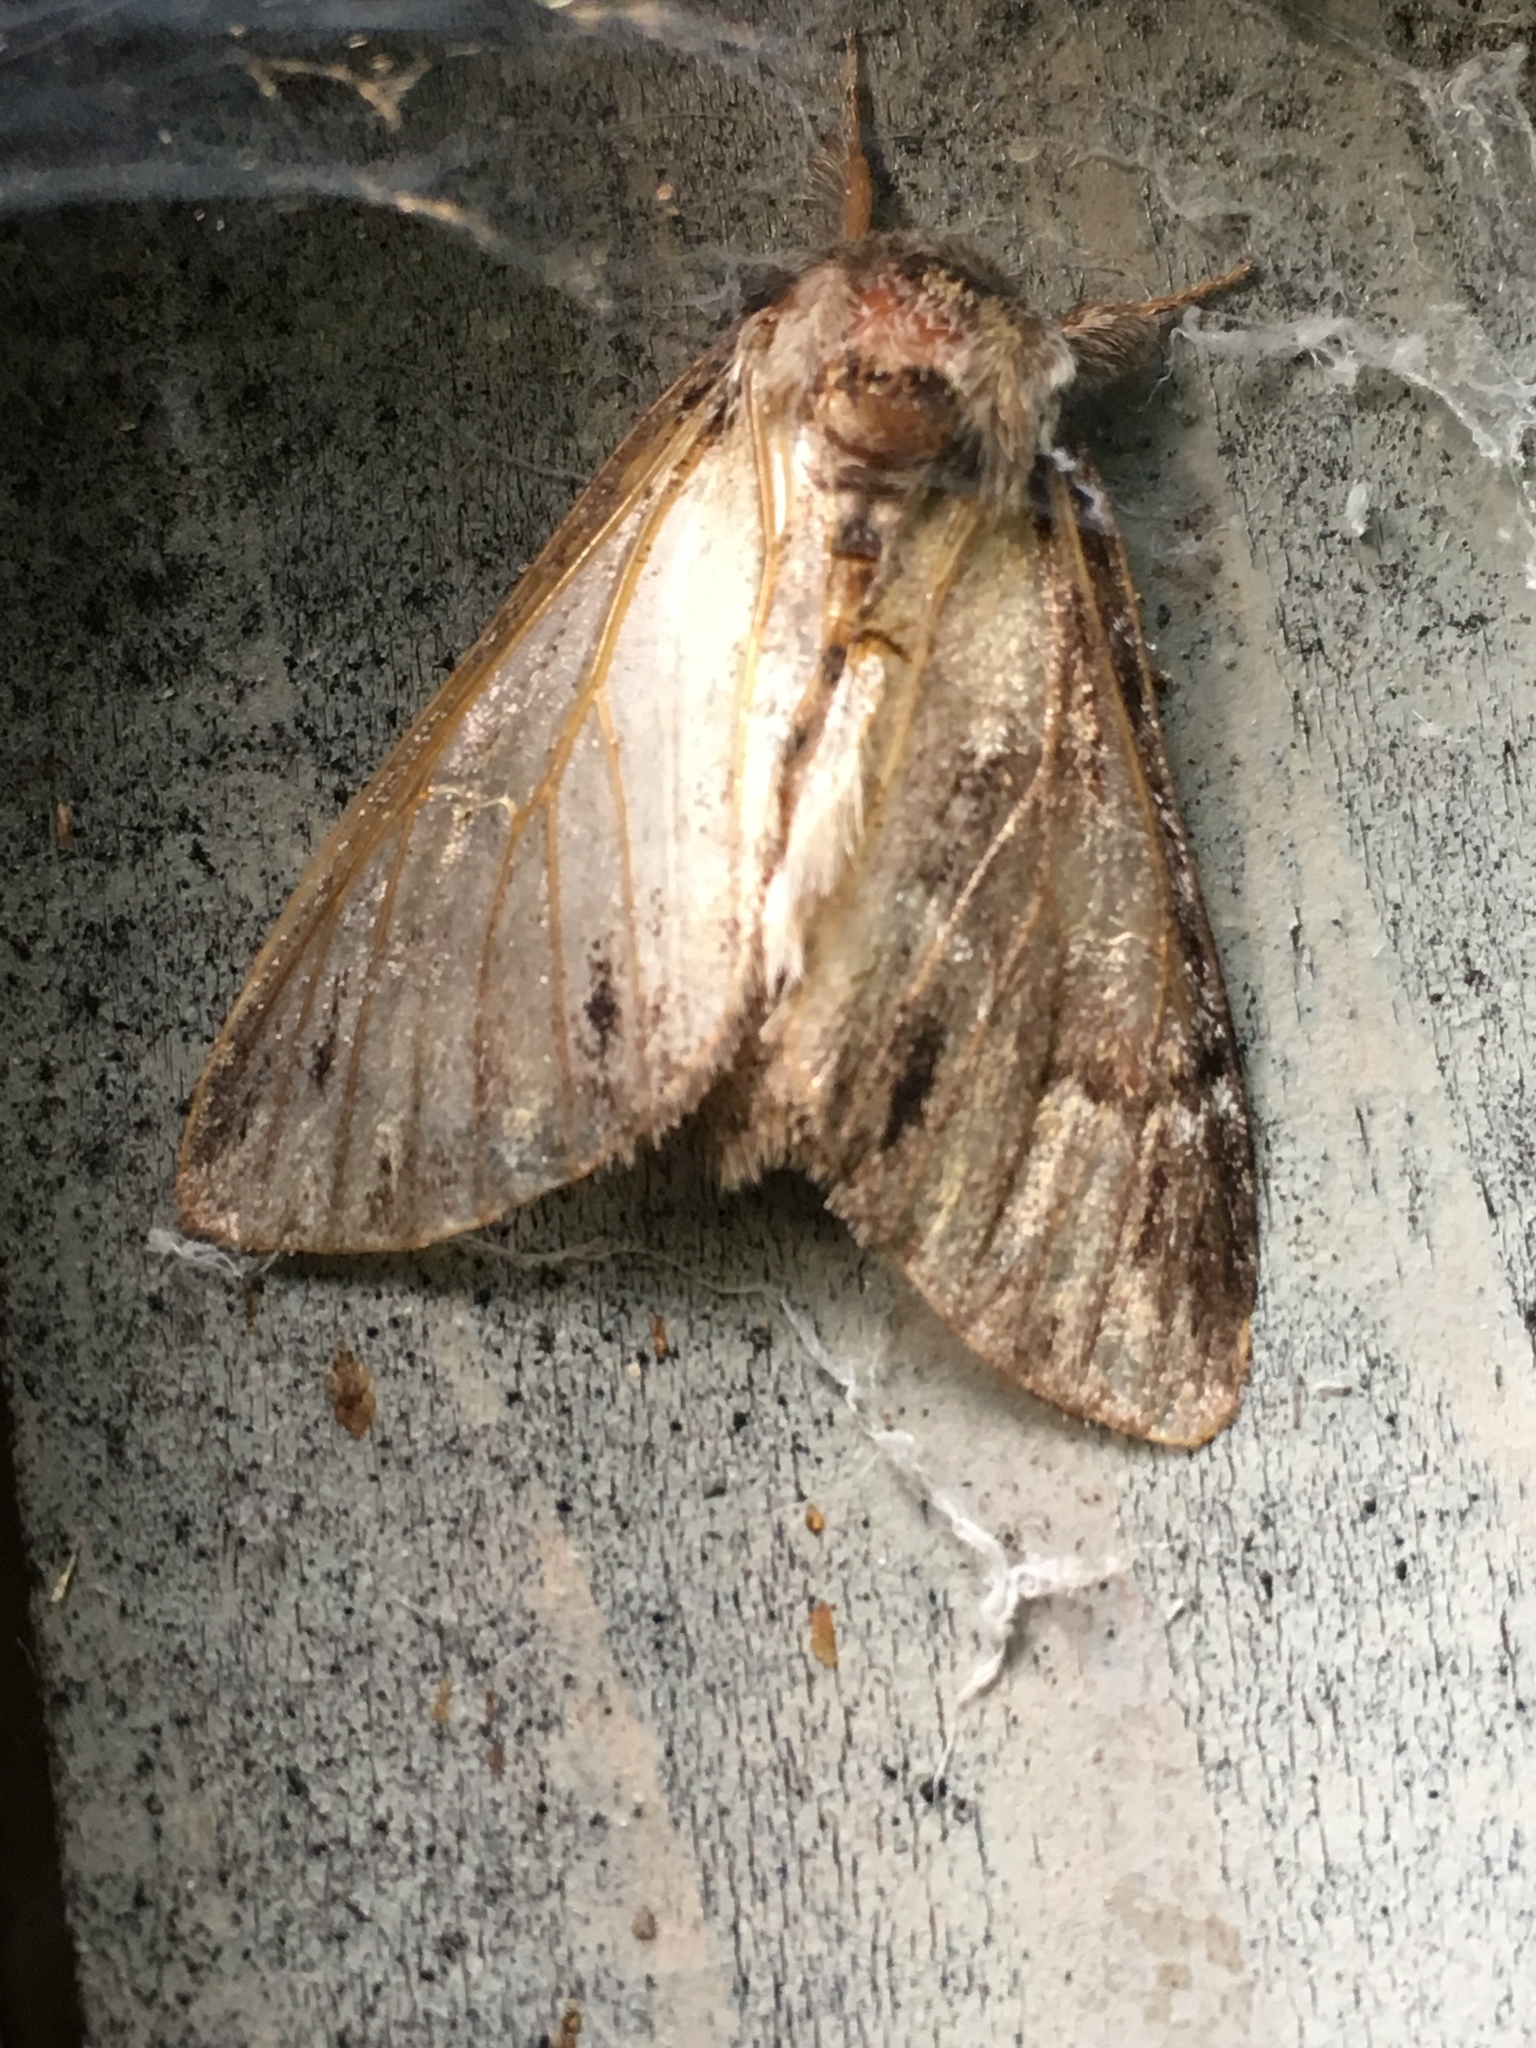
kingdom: Animalia
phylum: Arthropoda
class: Insecta
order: Lepidoptera
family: Notodontidae
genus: Paraeschra
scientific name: Paraeschra georgica
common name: Georgian prominent
